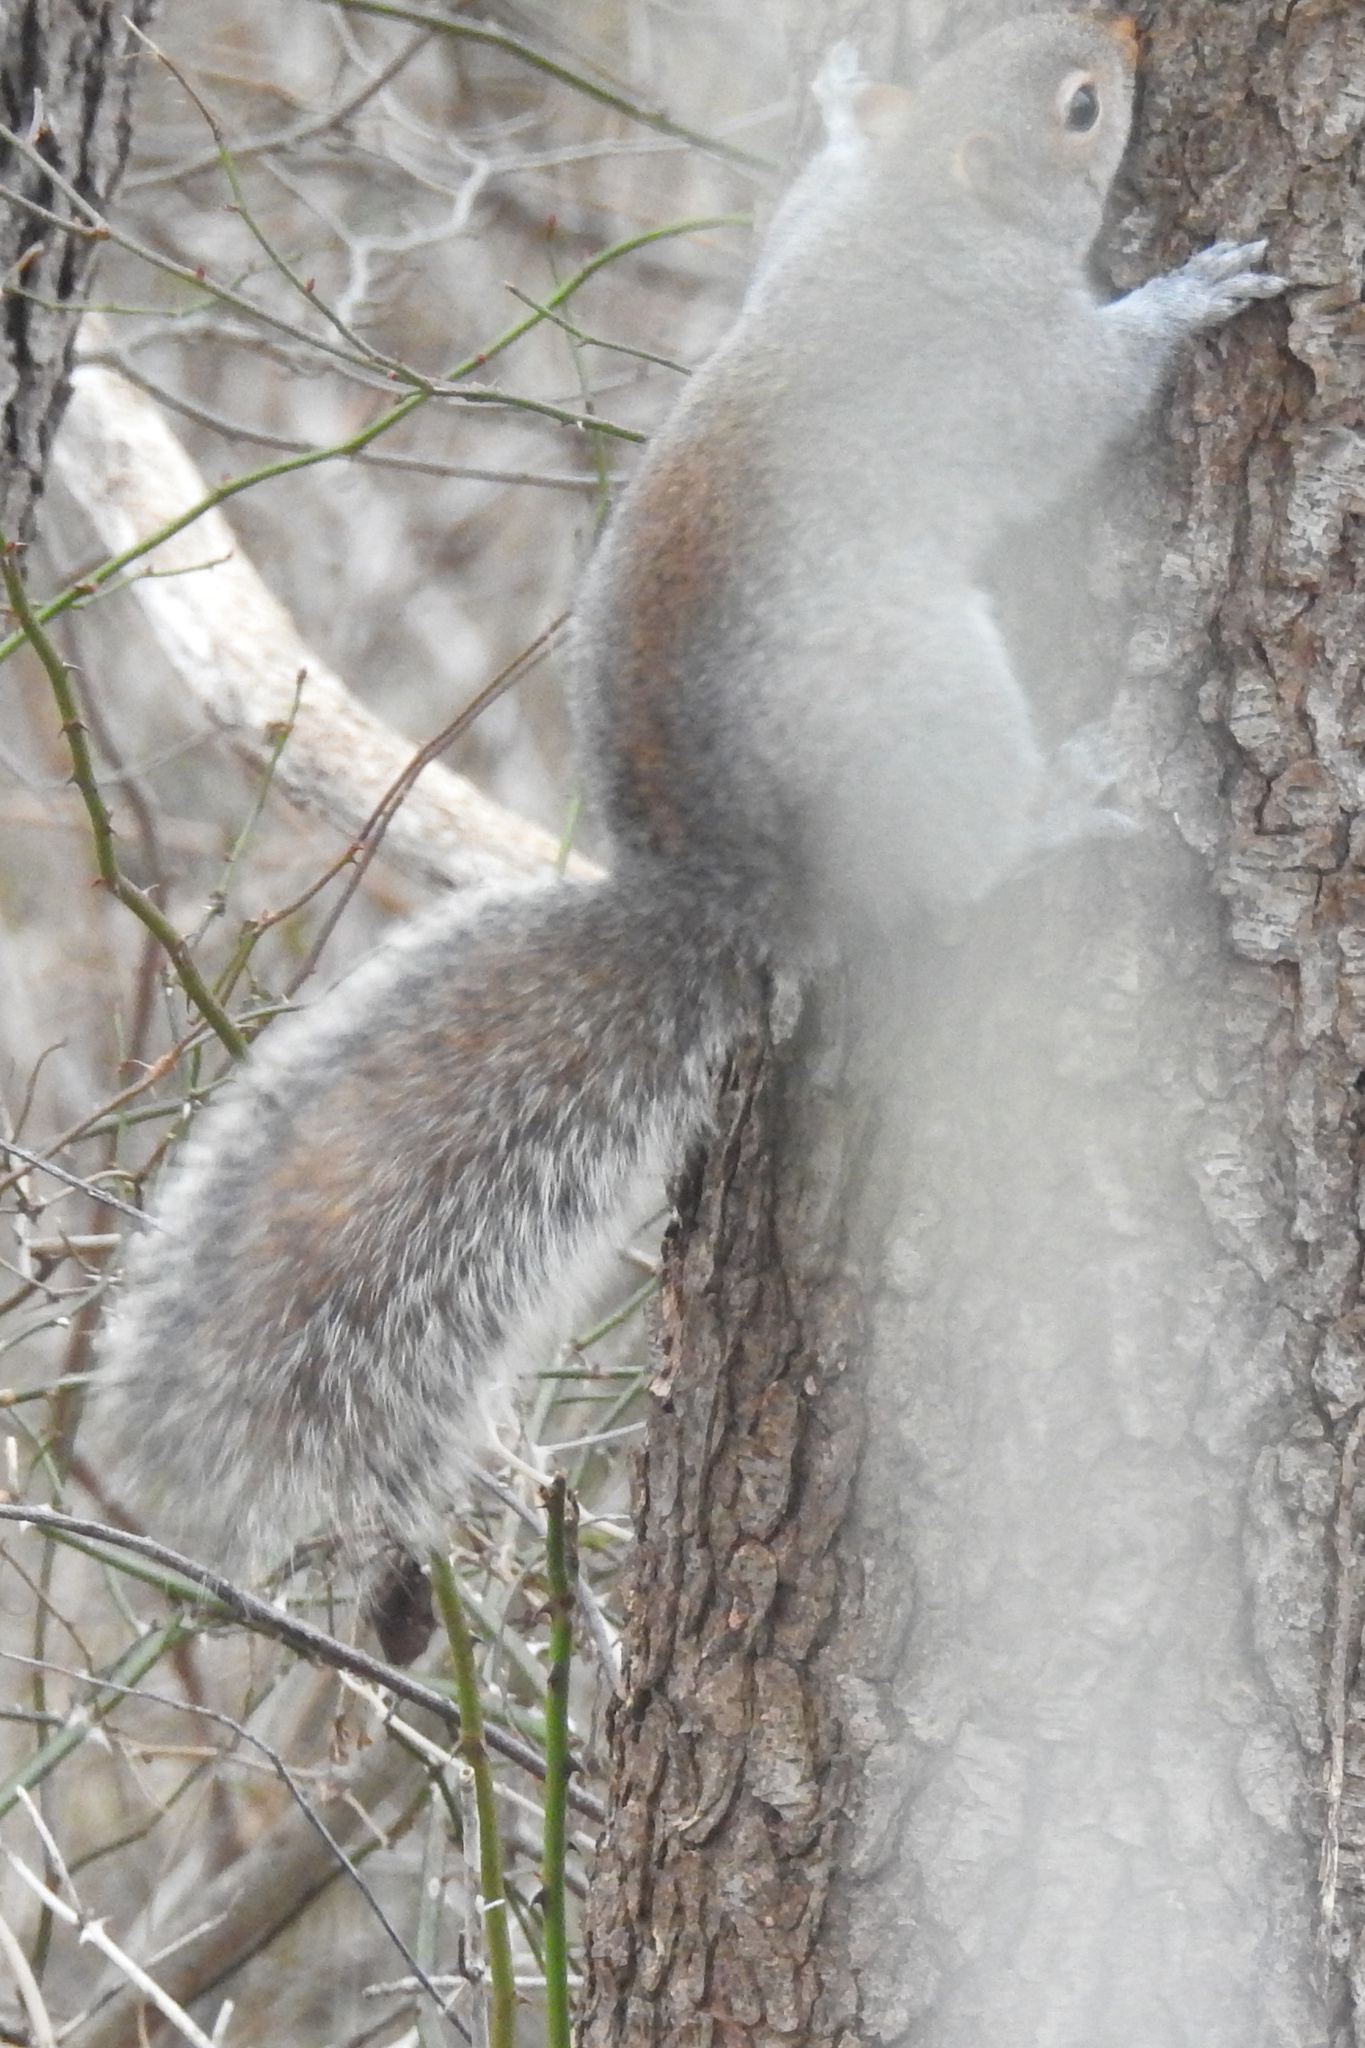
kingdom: Animalia
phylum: Chordata
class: Mammalia
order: Rodentia
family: Sciuridae
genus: Sciurus
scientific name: Sciurus carolinensis
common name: Eastern gray squirrel
